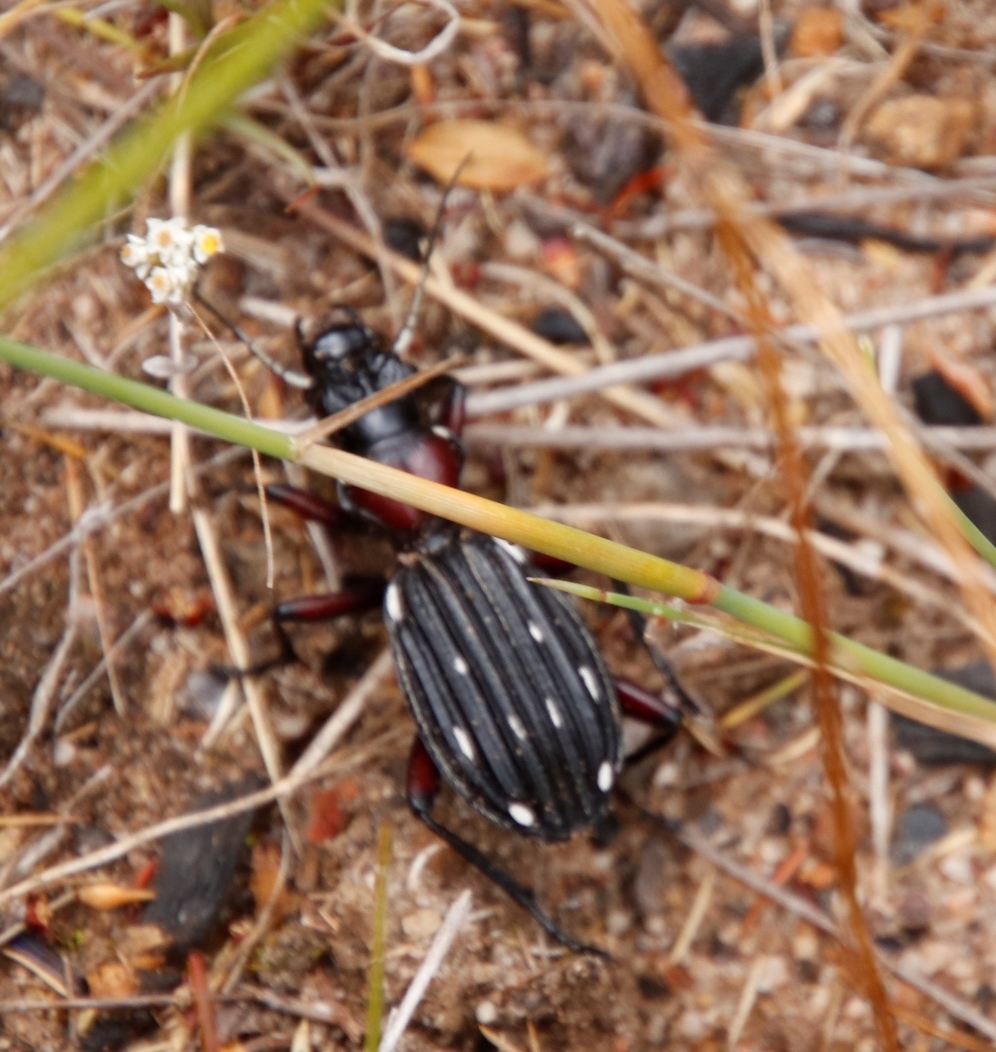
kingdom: Animalia
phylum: Arthropoda
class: Insecta
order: Coleoptera
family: Carabidae
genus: Anthia
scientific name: Anthia decemguttata
